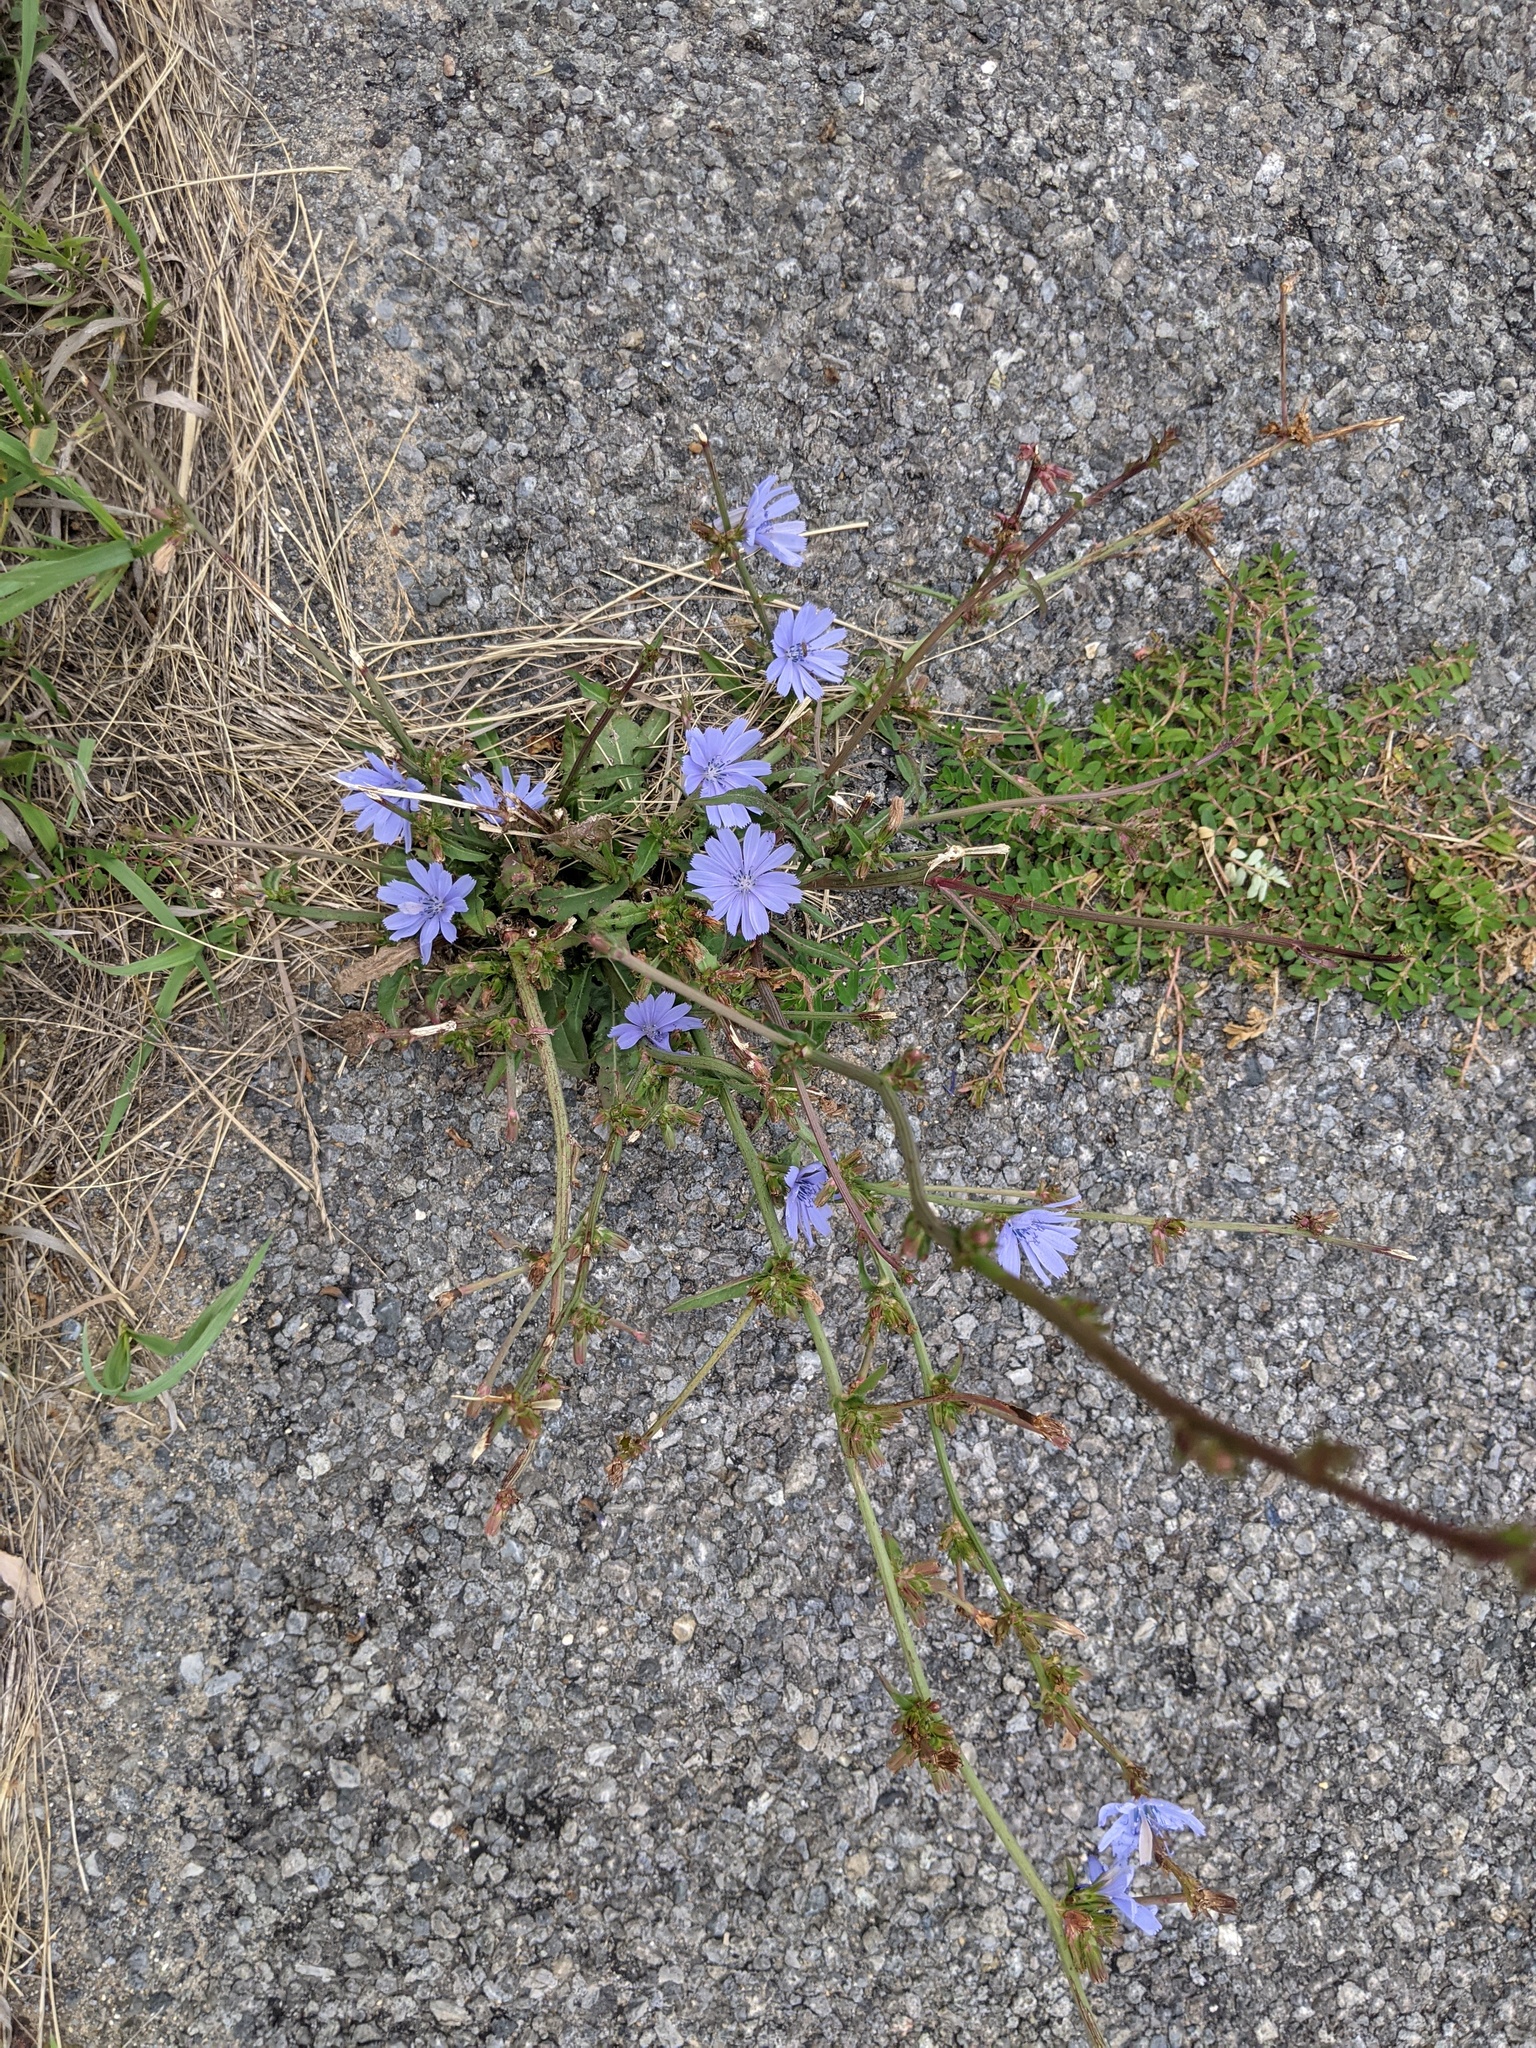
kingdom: Plantae
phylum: Tracheophyta
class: Magnoliopsida
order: Asterales
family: Asteraceae
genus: Cichorium
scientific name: Cichorium intybus
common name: Chicory
